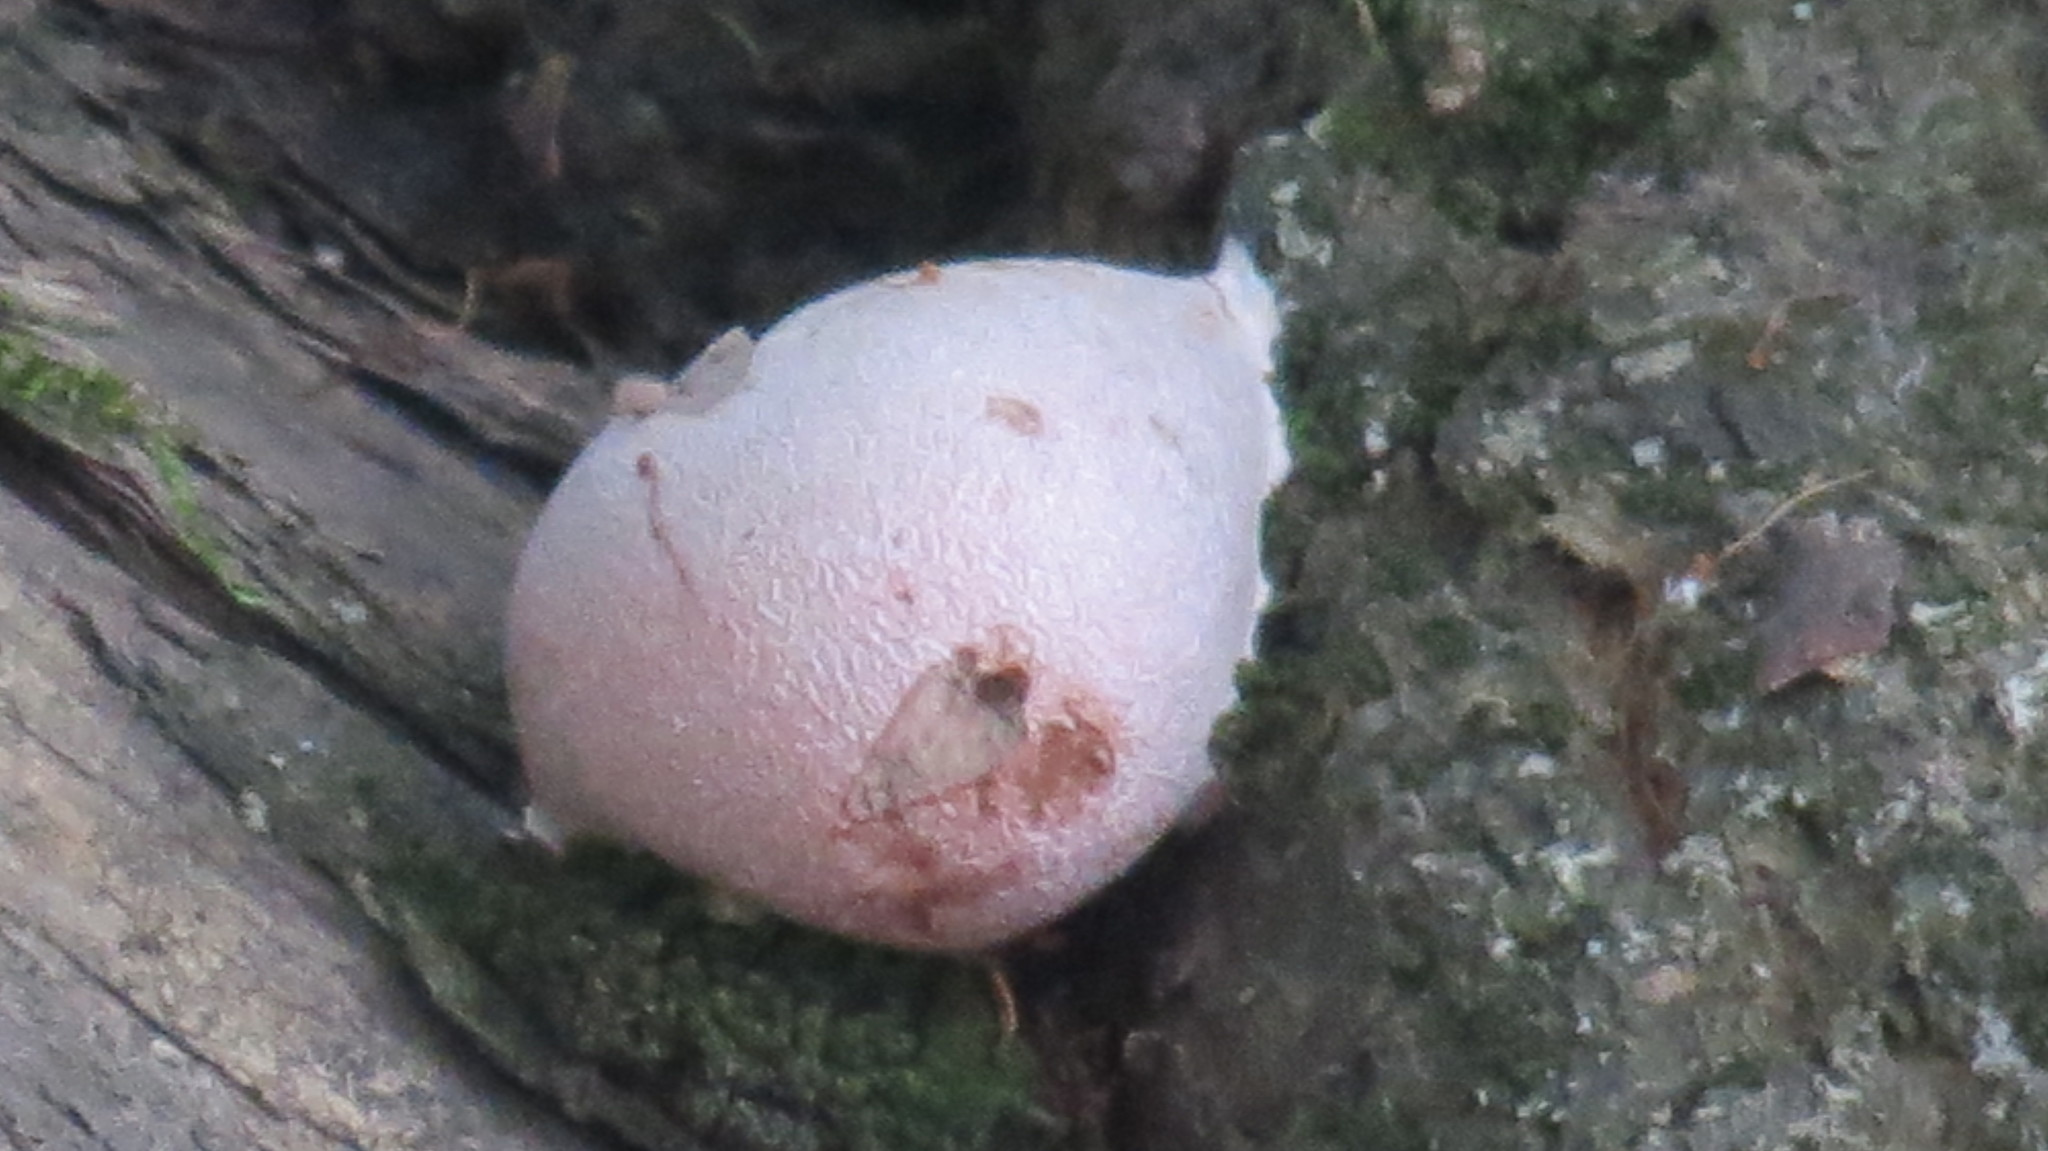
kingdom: Protozoa
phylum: Mycetozoa
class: Myxomycetes
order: Cribrariales
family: Tubiferaceae
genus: Reticularia
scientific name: Reticularia lycoperdon
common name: False puffball
